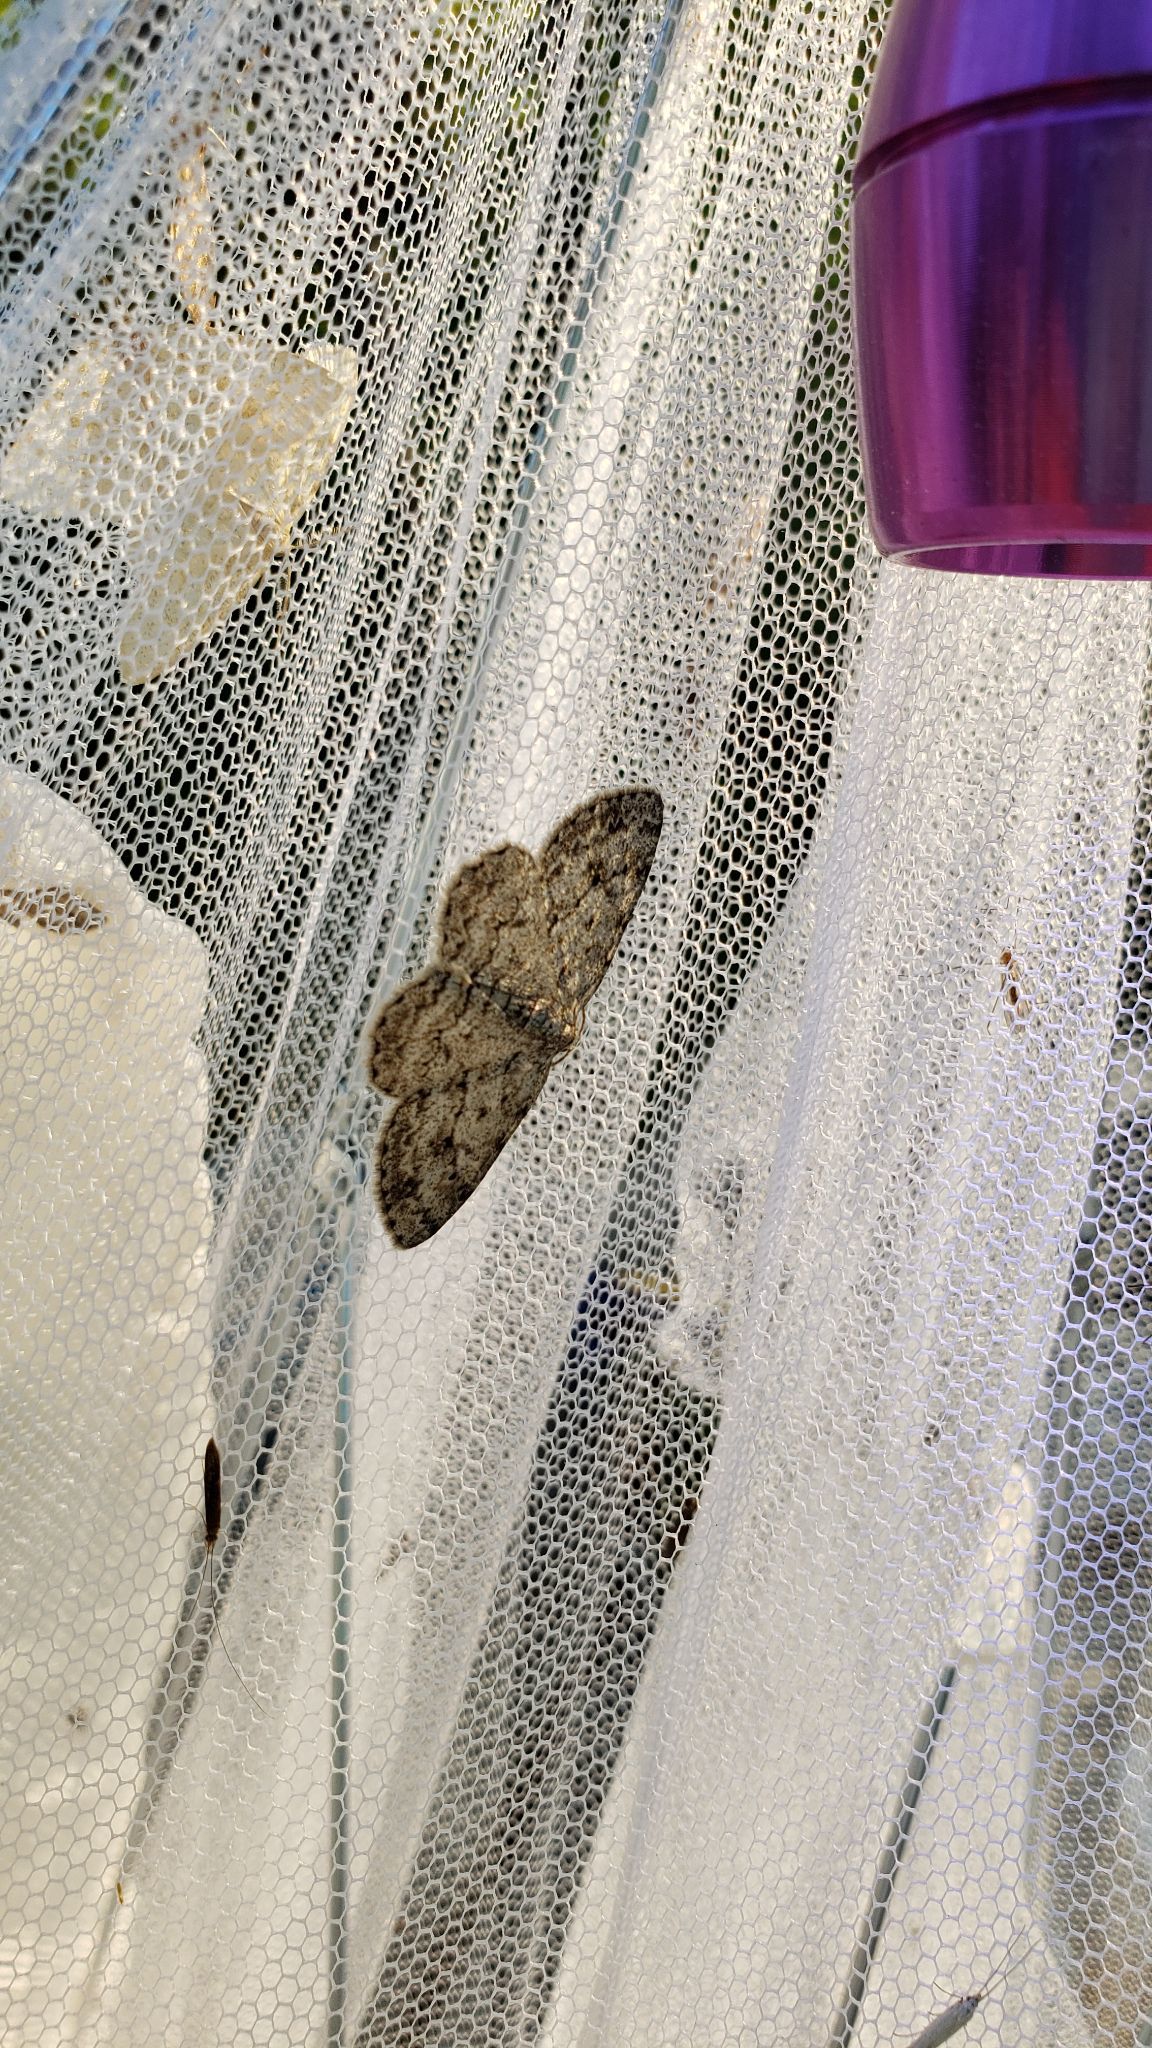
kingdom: Animalia
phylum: Arthropoda
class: Insecta
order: Lepidoptera
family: Geometridae
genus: Ectropis
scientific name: Ectropis crepuscularia
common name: Engrailed
